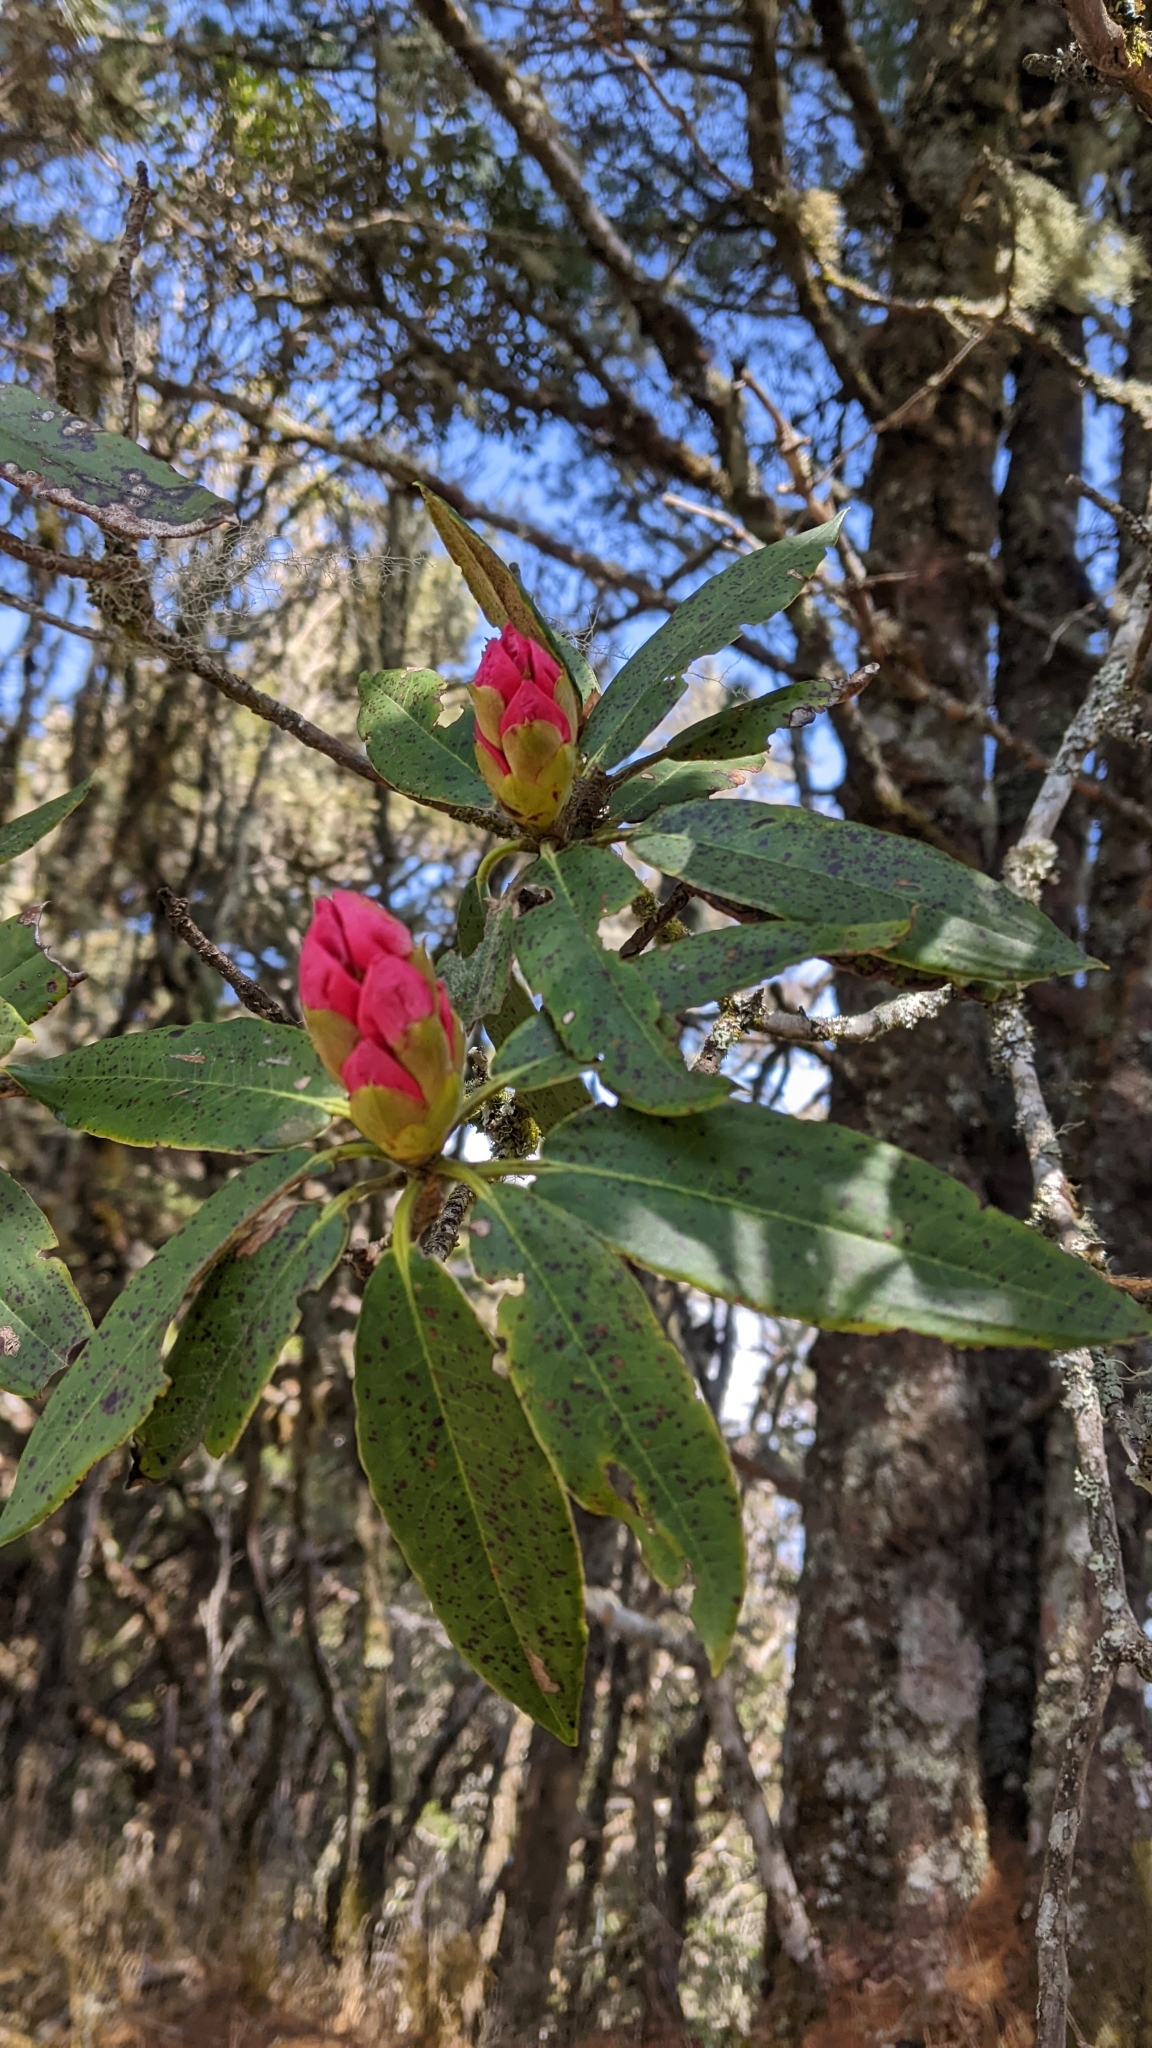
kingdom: Plantae
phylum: Tracheophyta
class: Magnoliopsida
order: Ericales
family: Ericaceae
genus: Rhododendron
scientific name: Rhododendron pseudochrysanthum
